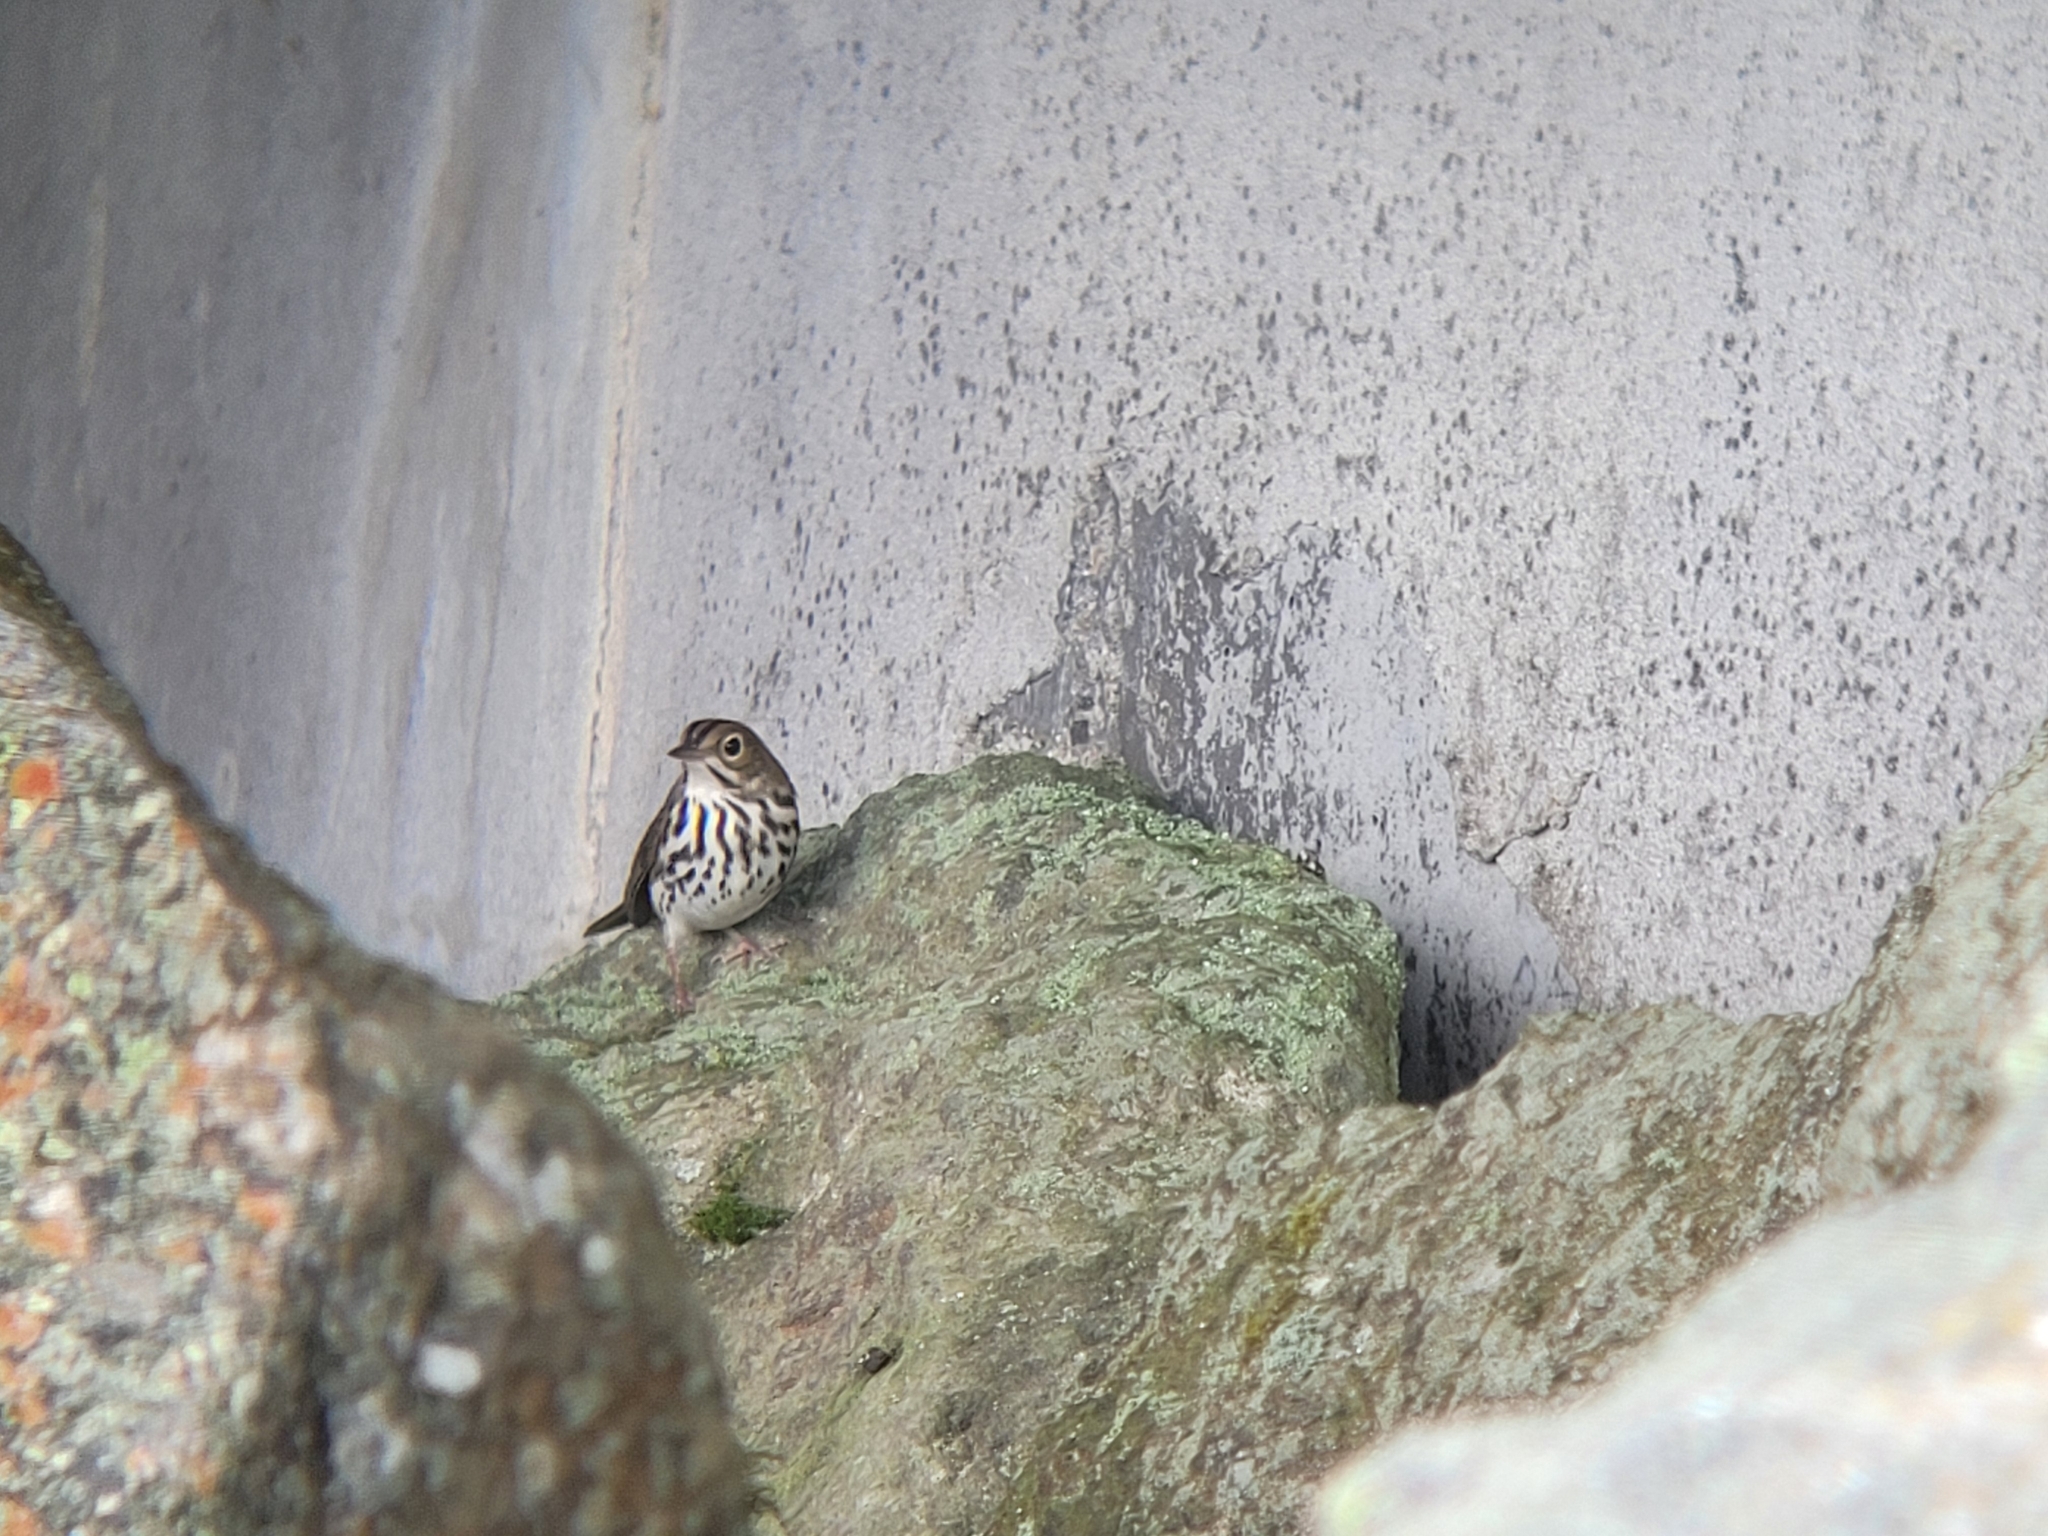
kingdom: Animalia
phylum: Chordata
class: Aves
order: Passeriformes
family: Parulidae
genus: Seiurus
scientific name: Seiurus aurocapilla
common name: Ovenbird
